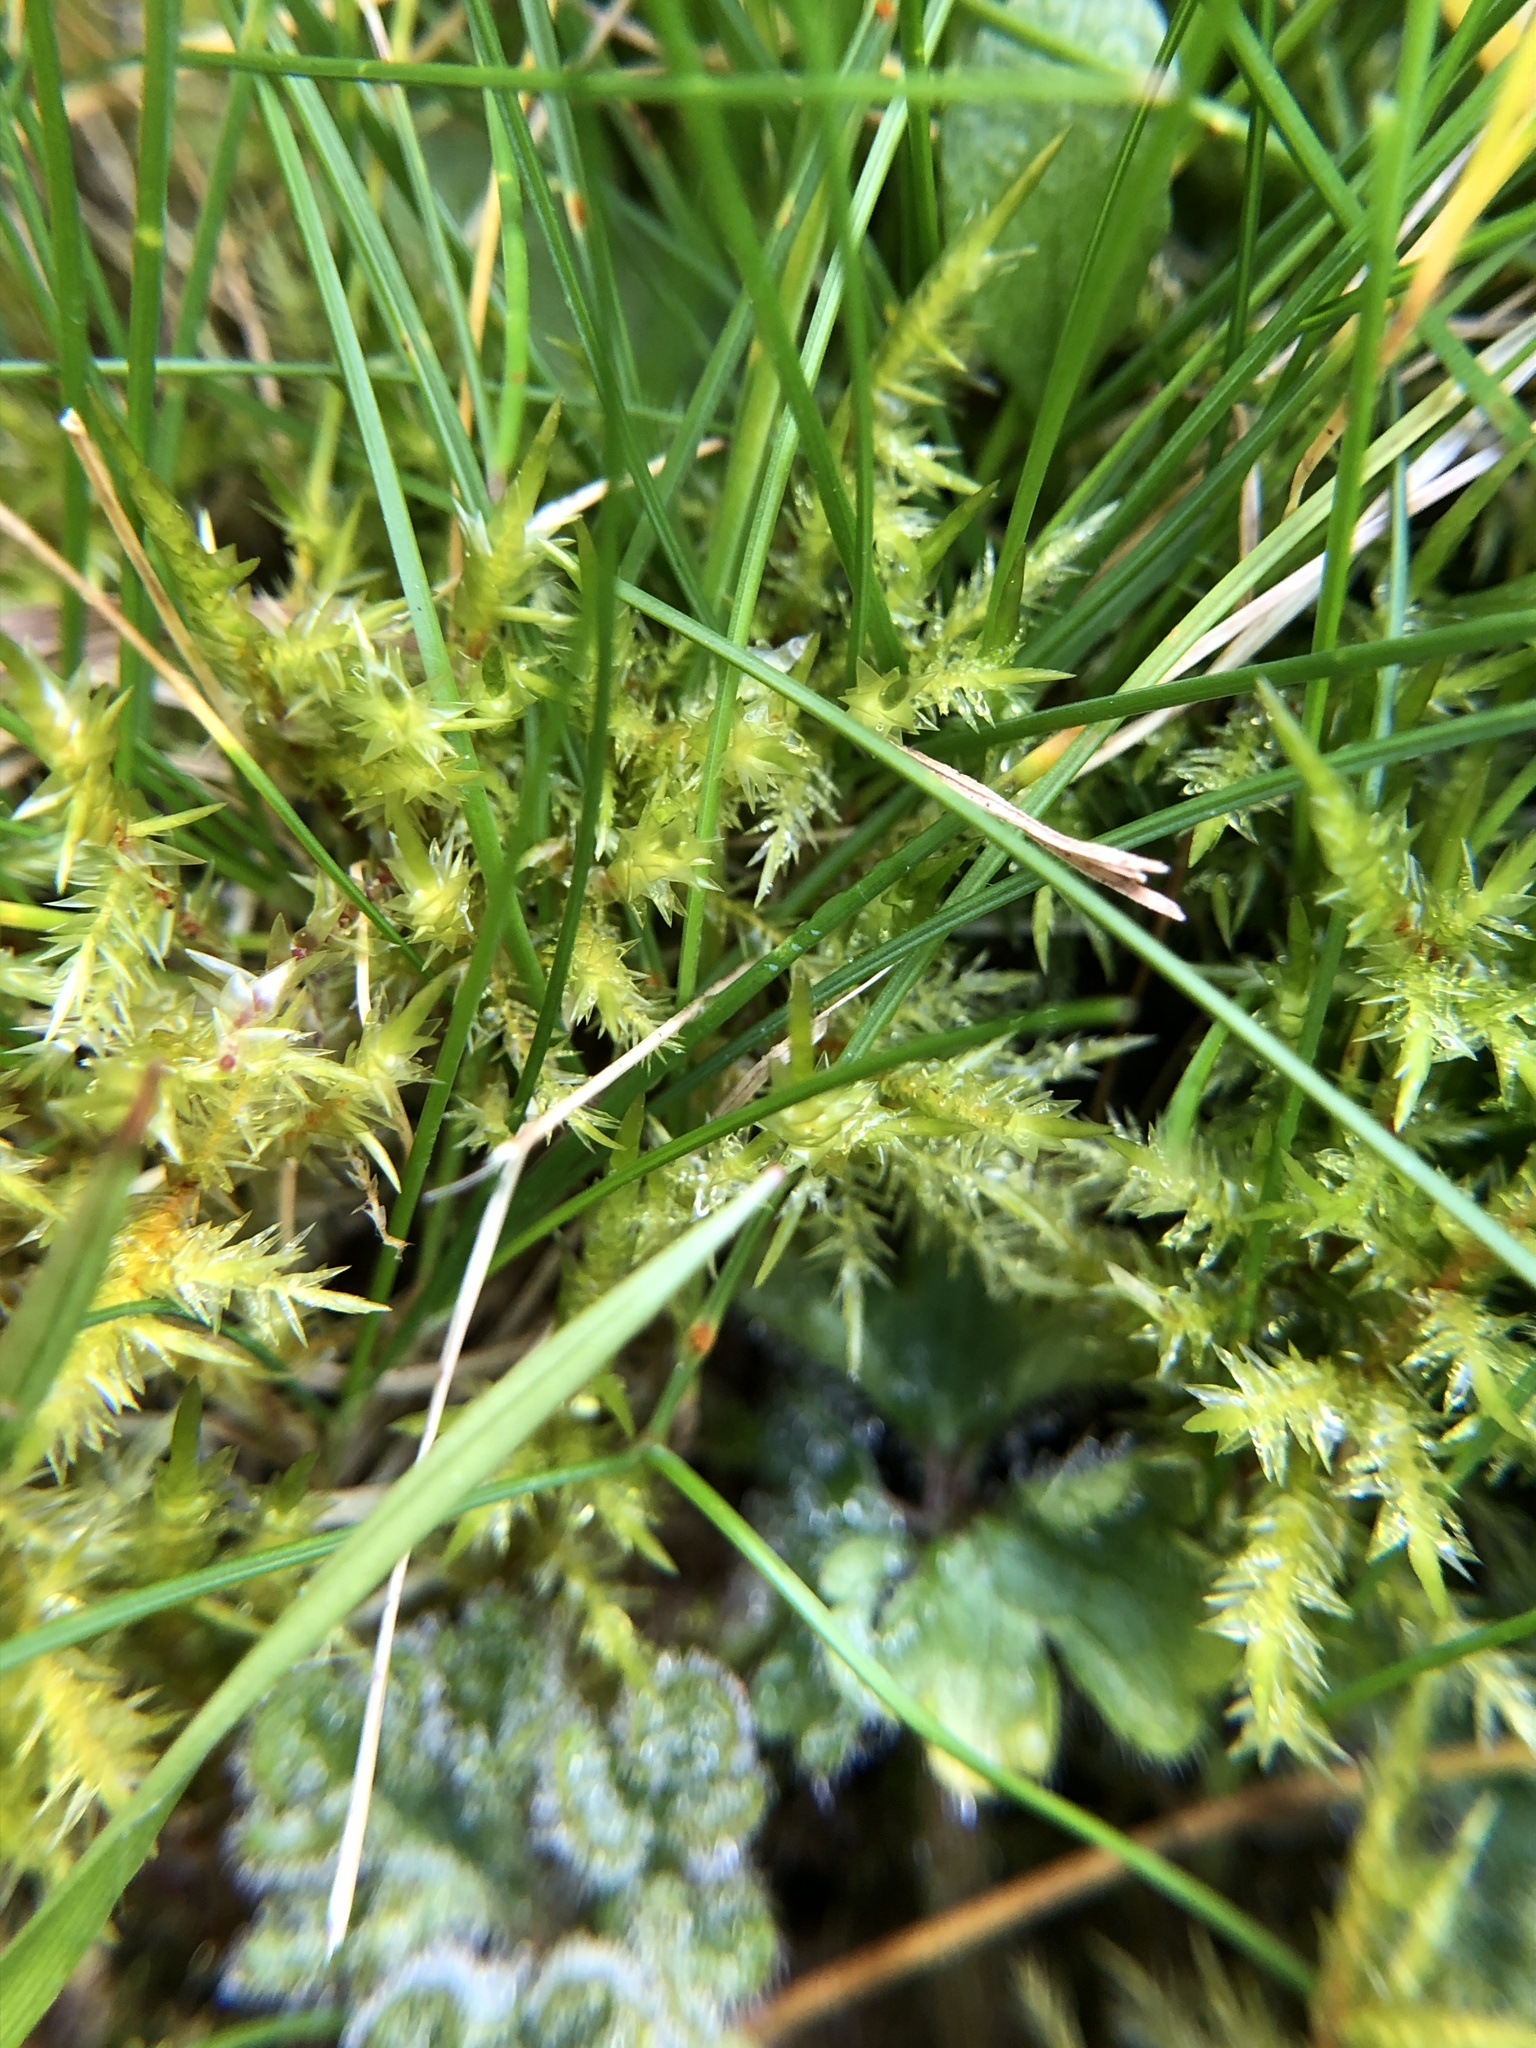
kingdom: Plantae
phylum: Bryophyta
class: Bryopsida
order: Hypnales
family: Pylaisiaceae
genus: Calliergonella
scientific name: Calliergonella cuspidata
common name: Common large wetland moss
